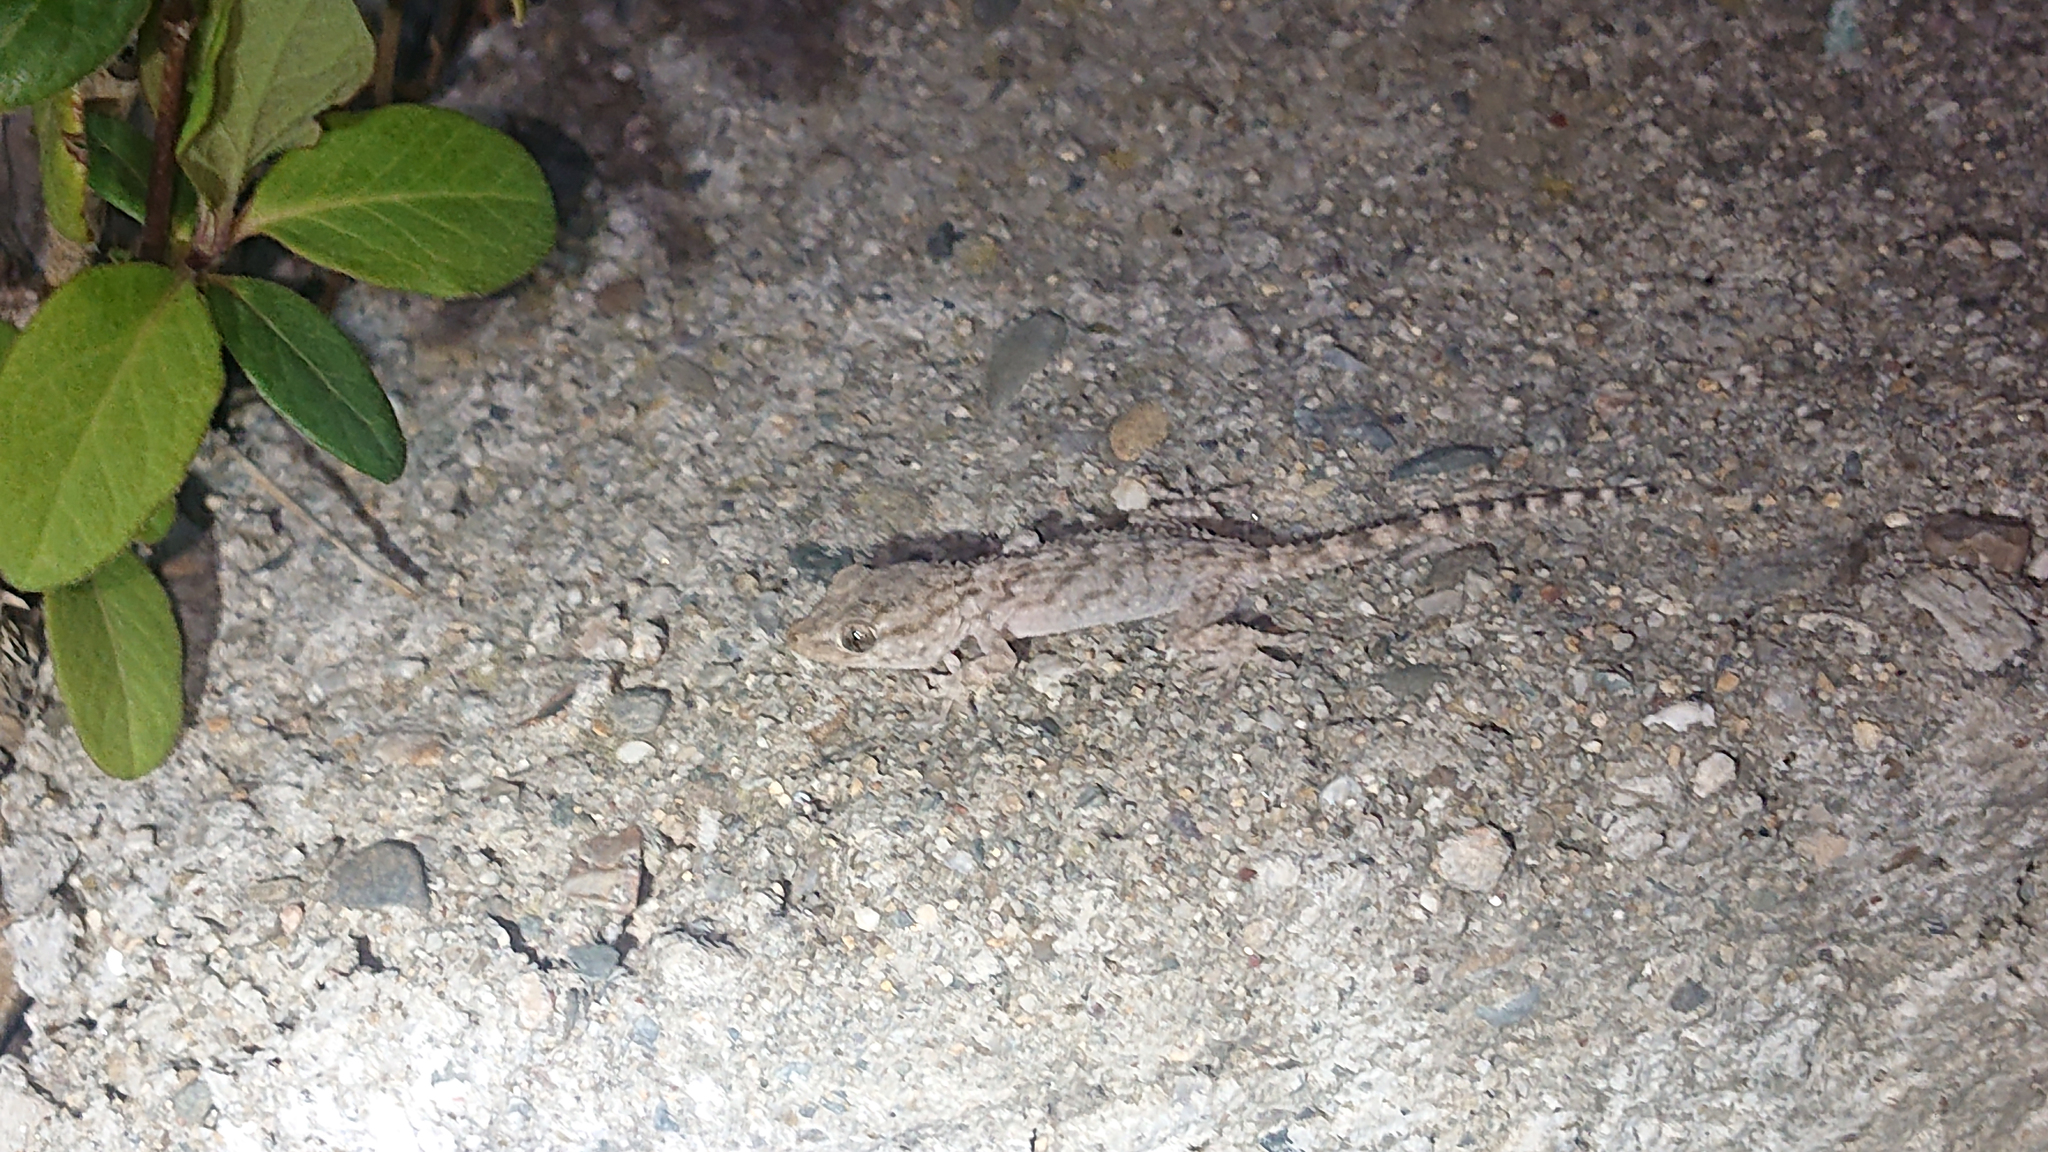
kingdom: Animalia
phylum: Chordata
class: Squamata
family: Phyllodactylidae
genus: Tarentola
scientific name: Tarentola mauritanica
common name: Moorish gecko
